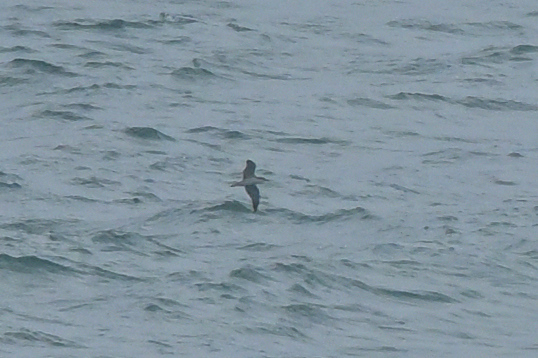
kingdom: Animalia
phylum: Chordata
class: Aves
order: Procellariiformes
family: Procellariidae
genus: Puffinus
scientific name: Puffinus bulleri
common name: Buller's shearwater
